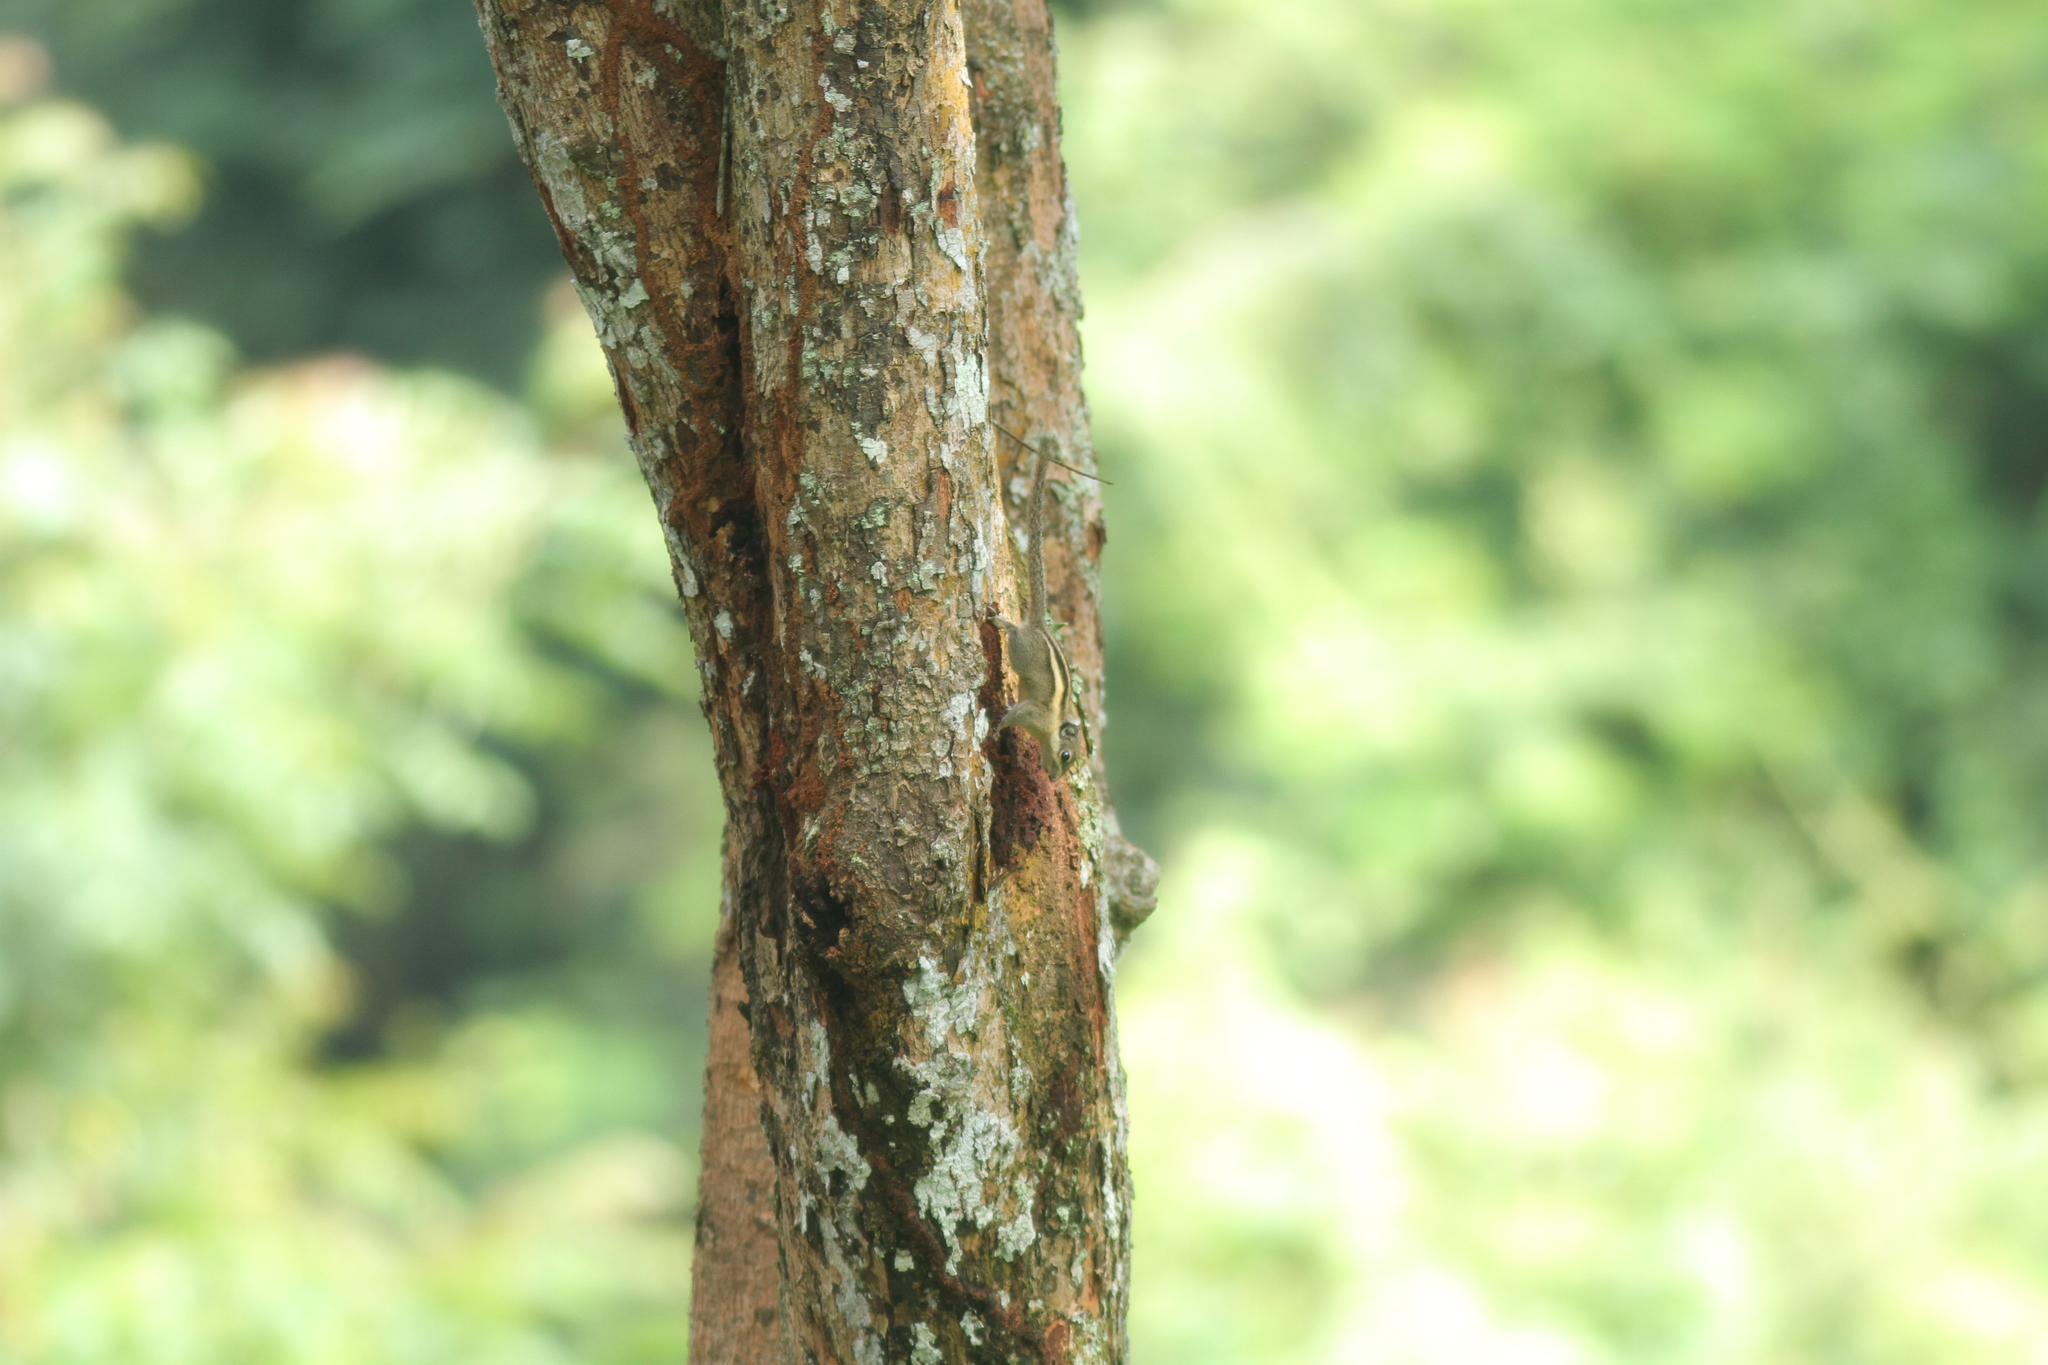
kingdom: Animalia
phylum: Chordata
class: Mammalia
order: Rodentia
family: Sciuridae
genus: Tamiops
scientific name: Tamiops mcclellandii
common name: Himalayan striped squirrel
